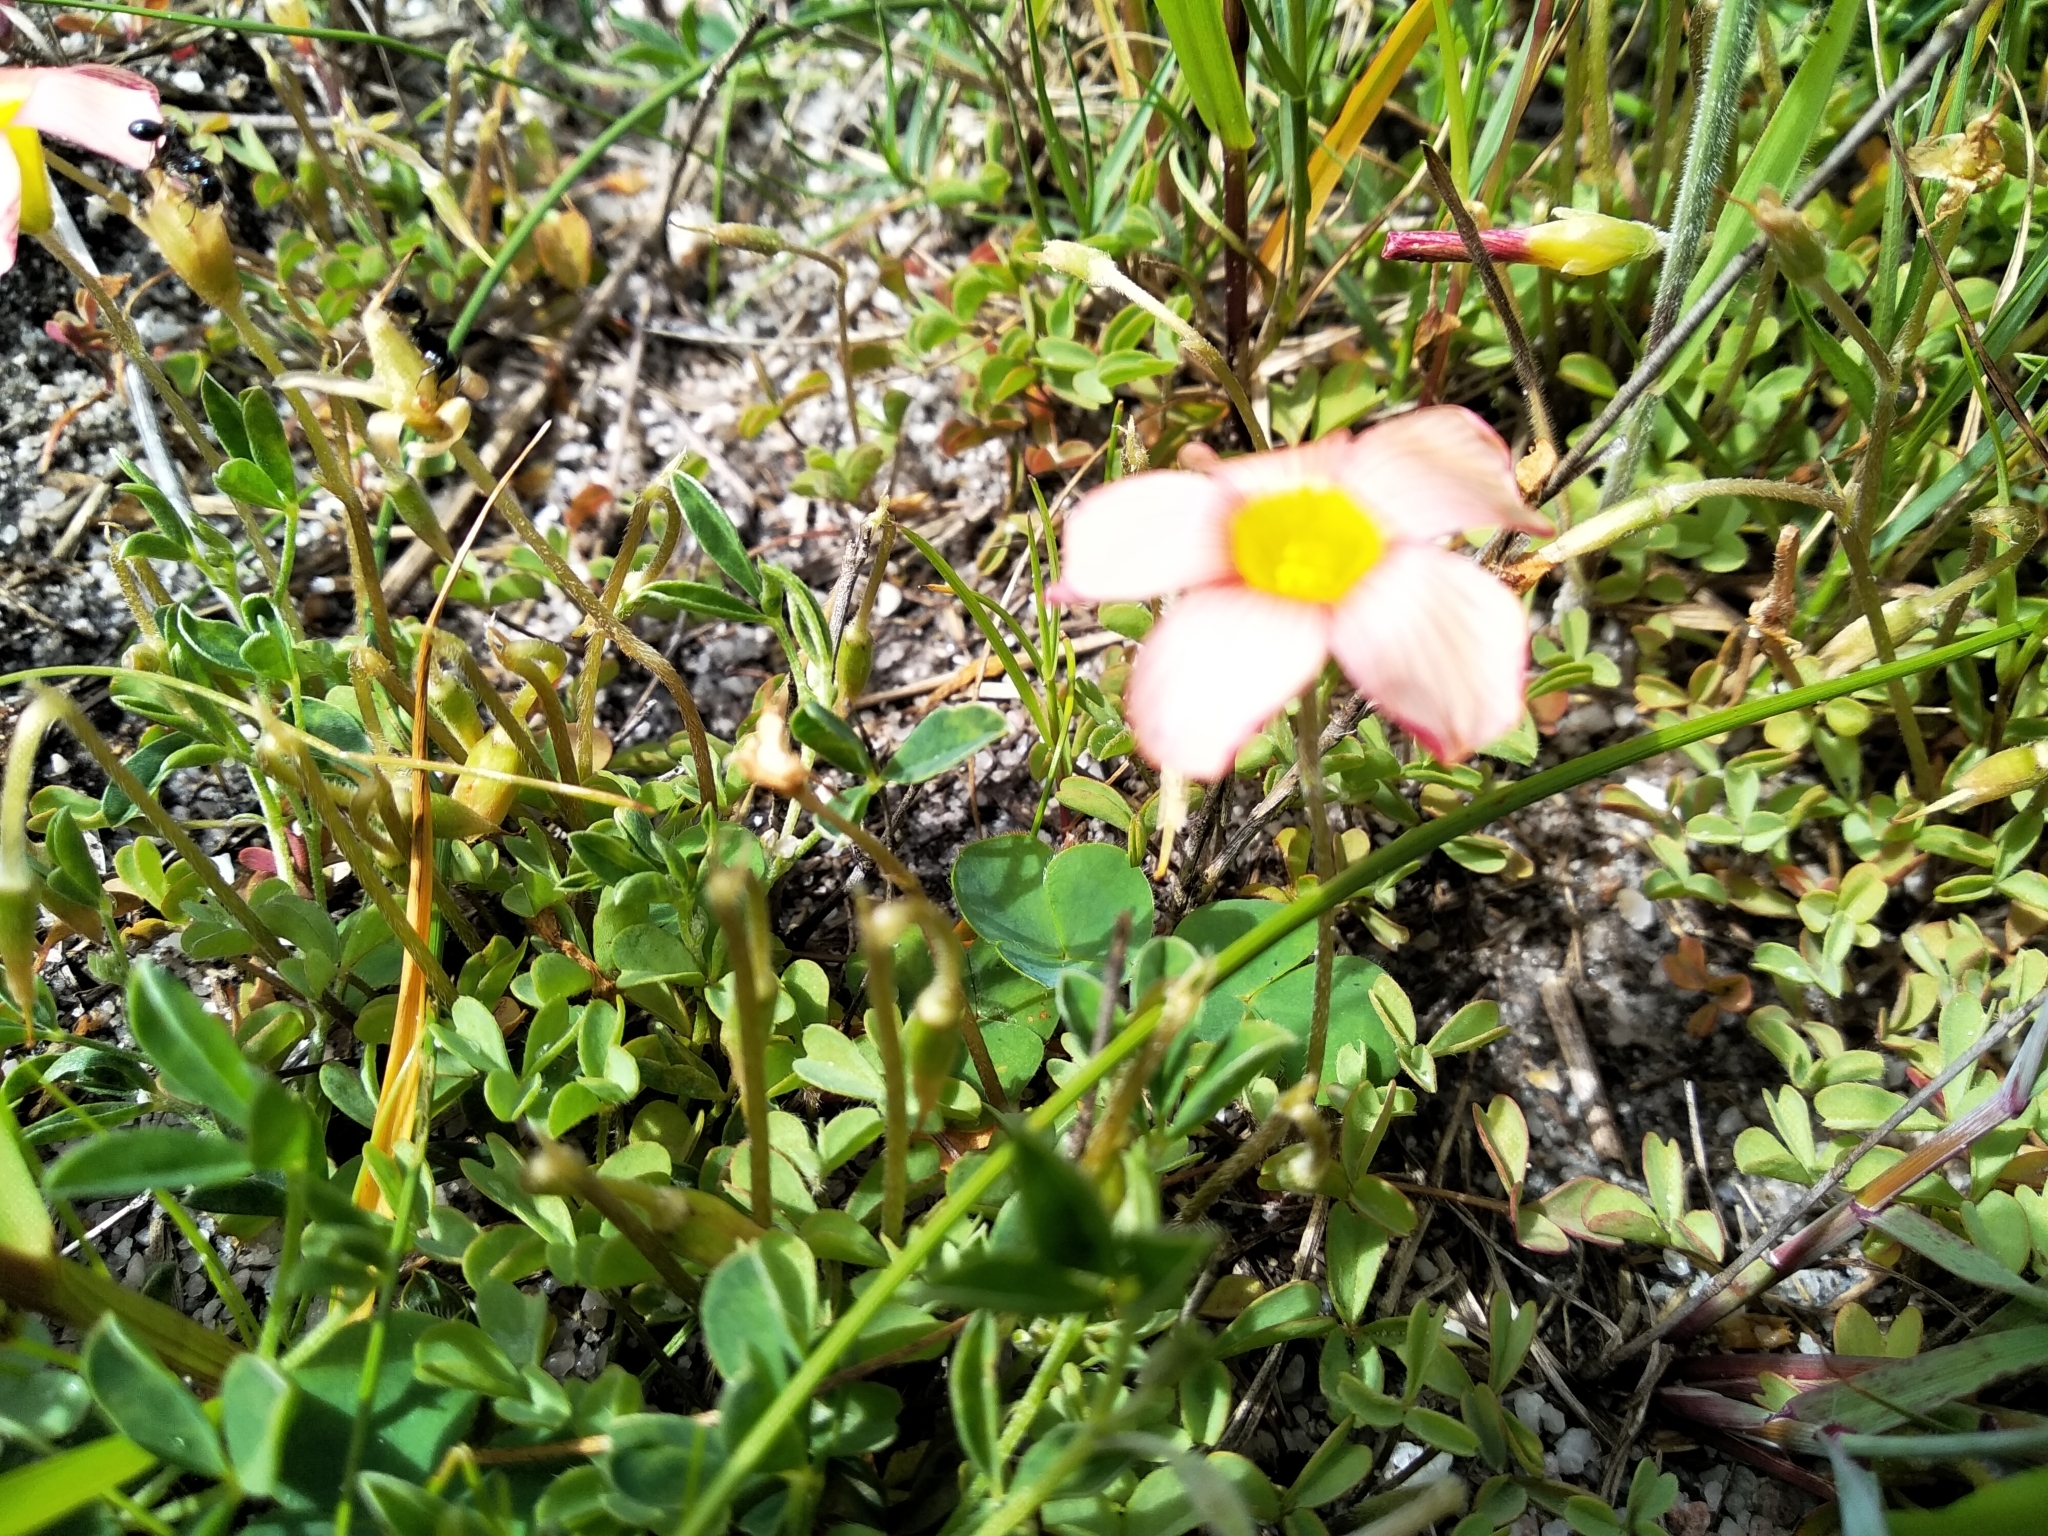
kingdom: Plantae
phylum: Tracheophyta
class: Magnoliopsida
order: Oxalidales
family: Oxalidaceae
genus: Oxalis
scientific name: Oxalis obtusa
